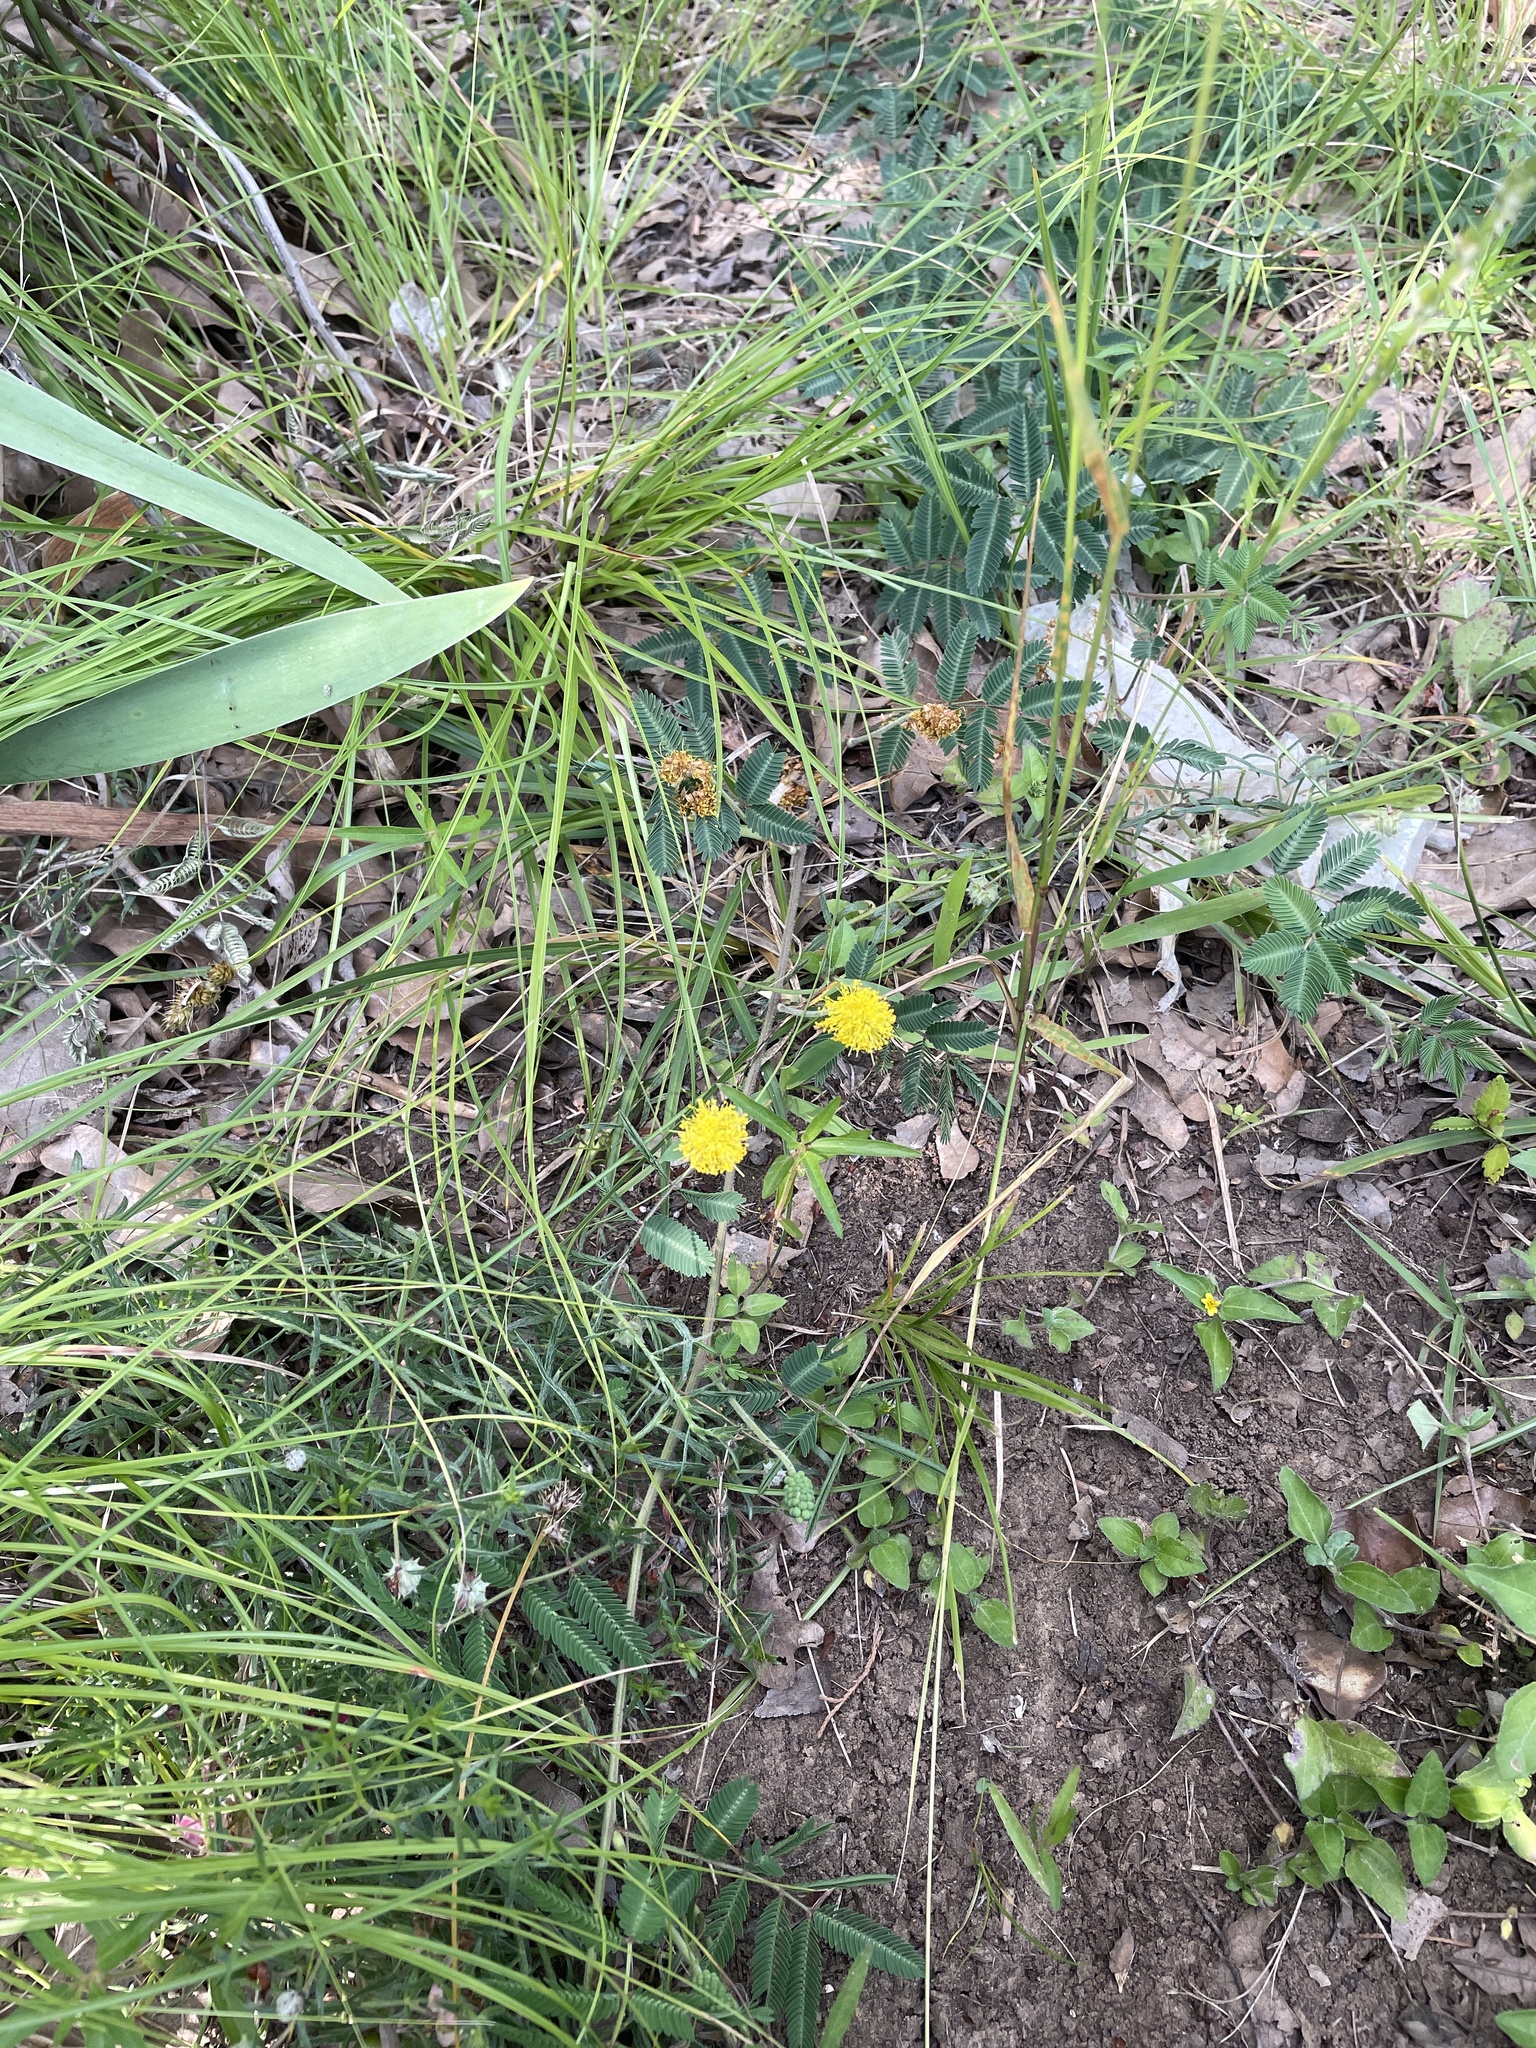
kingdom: Plantae
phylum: Tracheophyta
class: Magnoliopsida
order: Fabales
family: Fabaceae
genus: Neptunia
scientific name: Neptunia lutea
